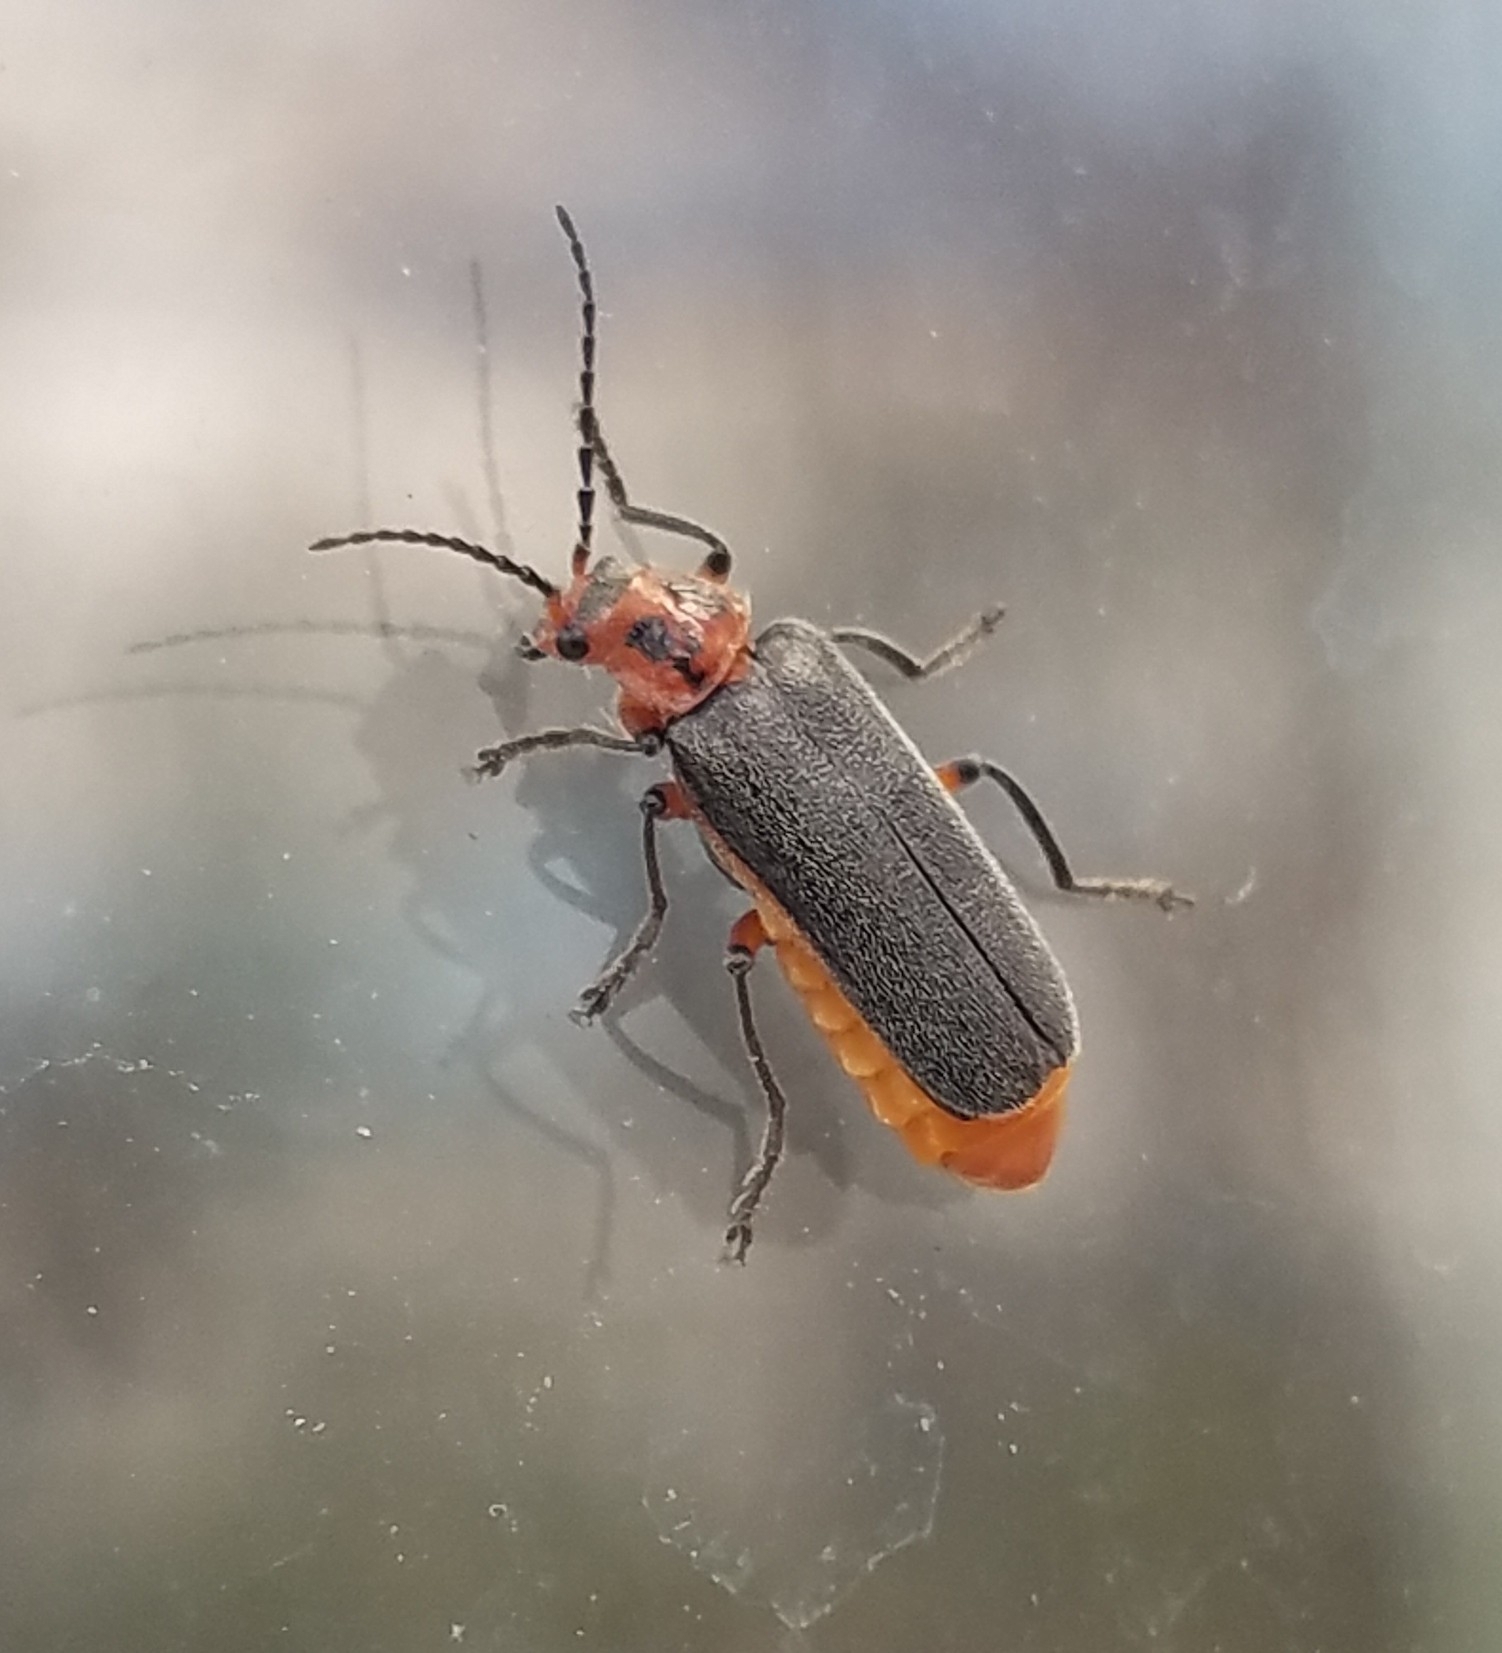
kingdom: Animalia
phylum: Arthropoda
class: Insecta
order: Coleoptera
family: Cantharidae
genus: Atalantycha
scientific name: Atalantycha bilineata
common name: Two-lined leatherwing
